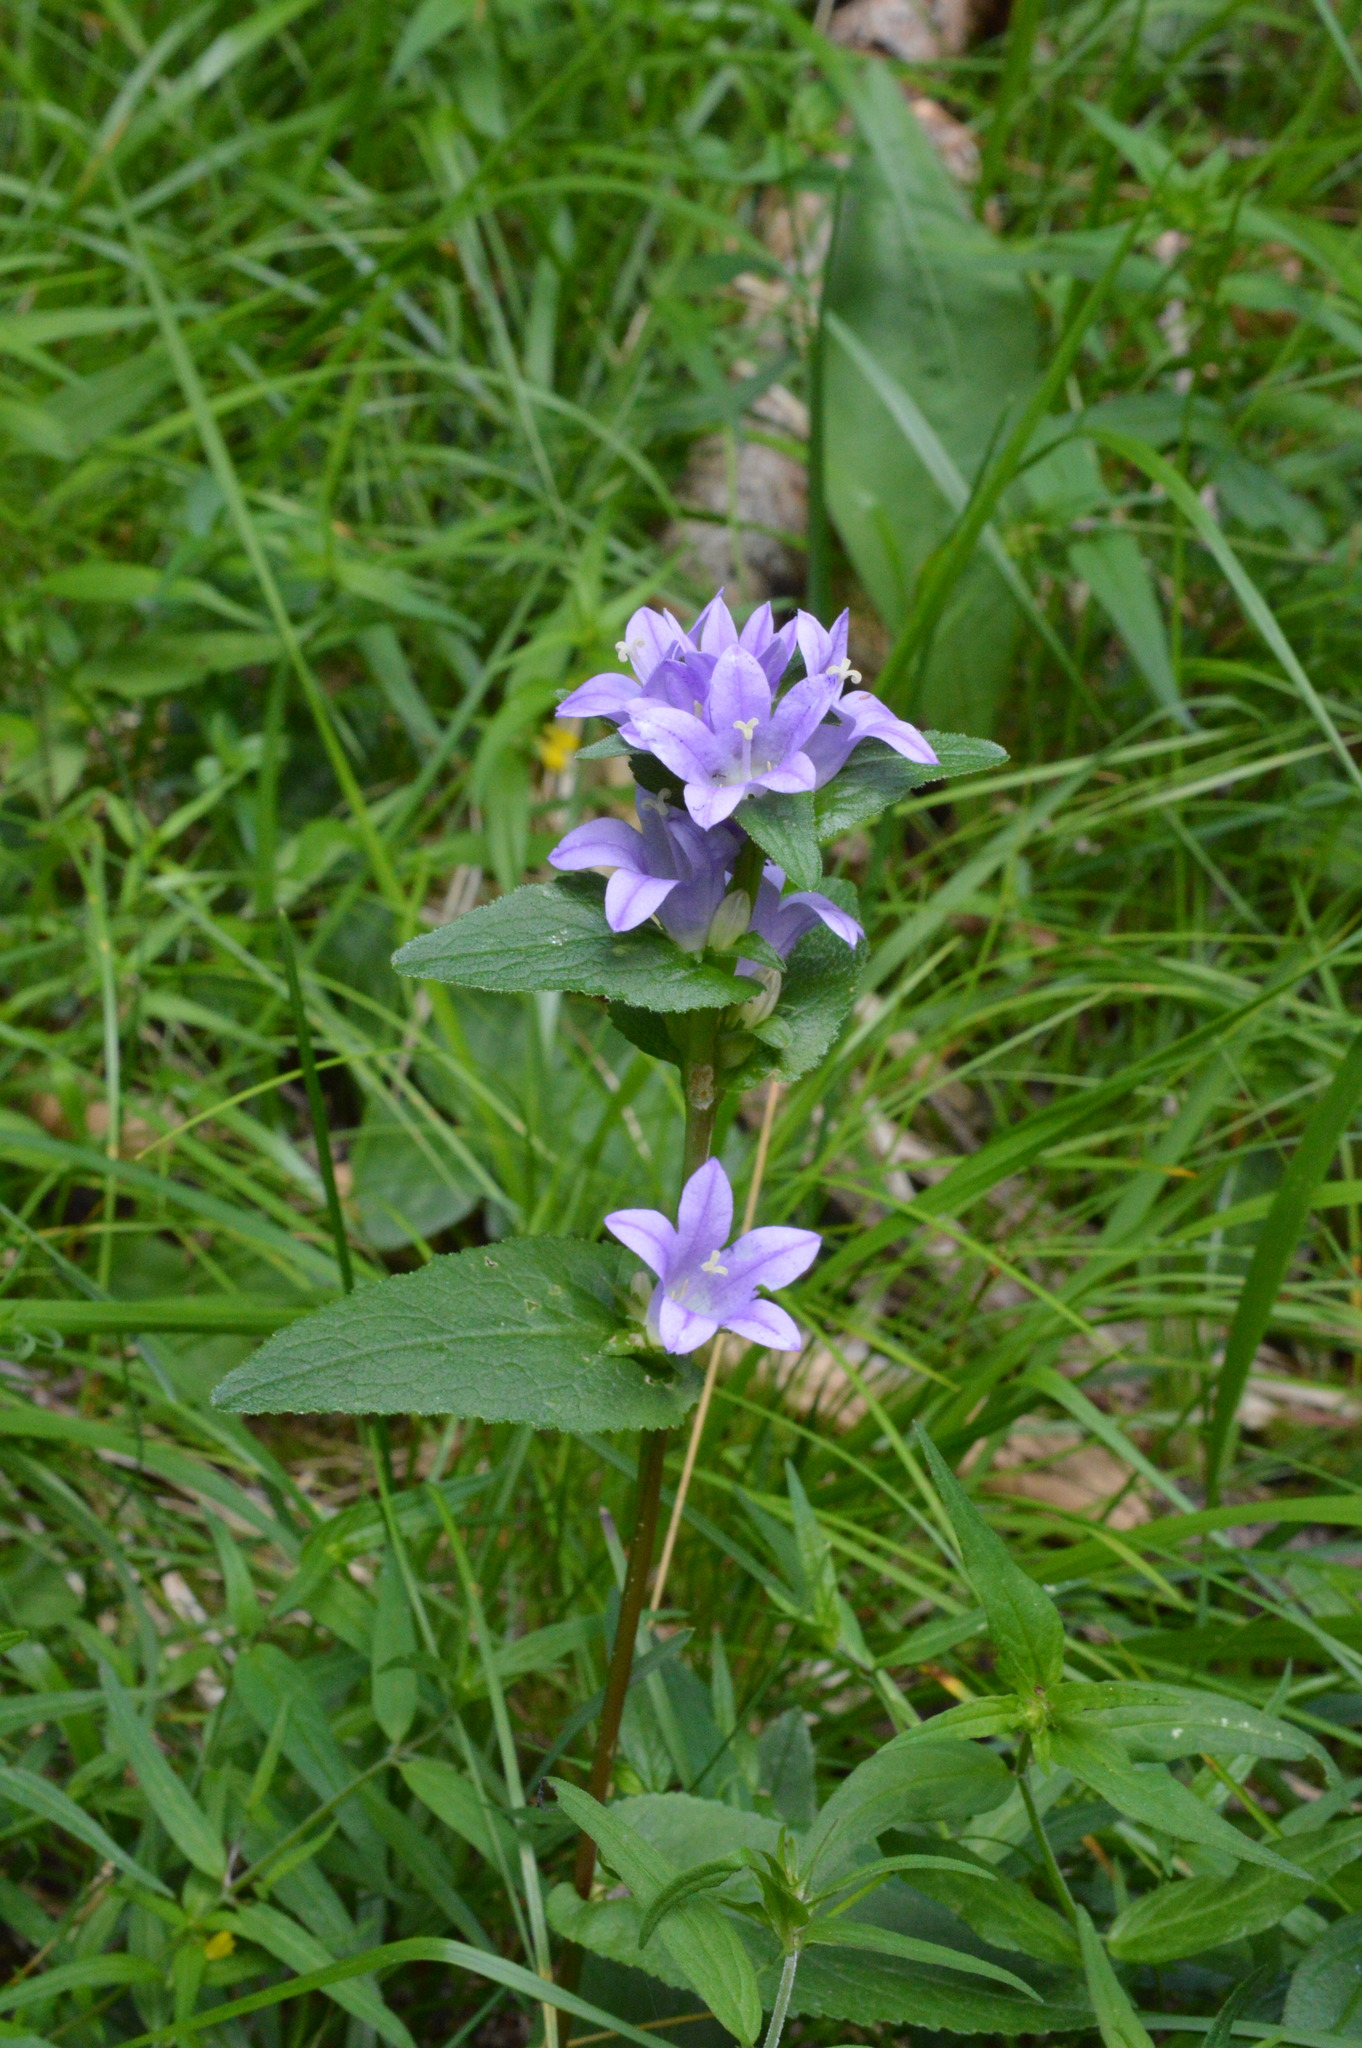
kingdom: Plantae
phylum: Tracheophyta
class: Magnoliopsida
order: Asterales
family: Campanulaceae
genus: Campanula
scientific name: Campanula glomerata
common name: Clustered bellflower
